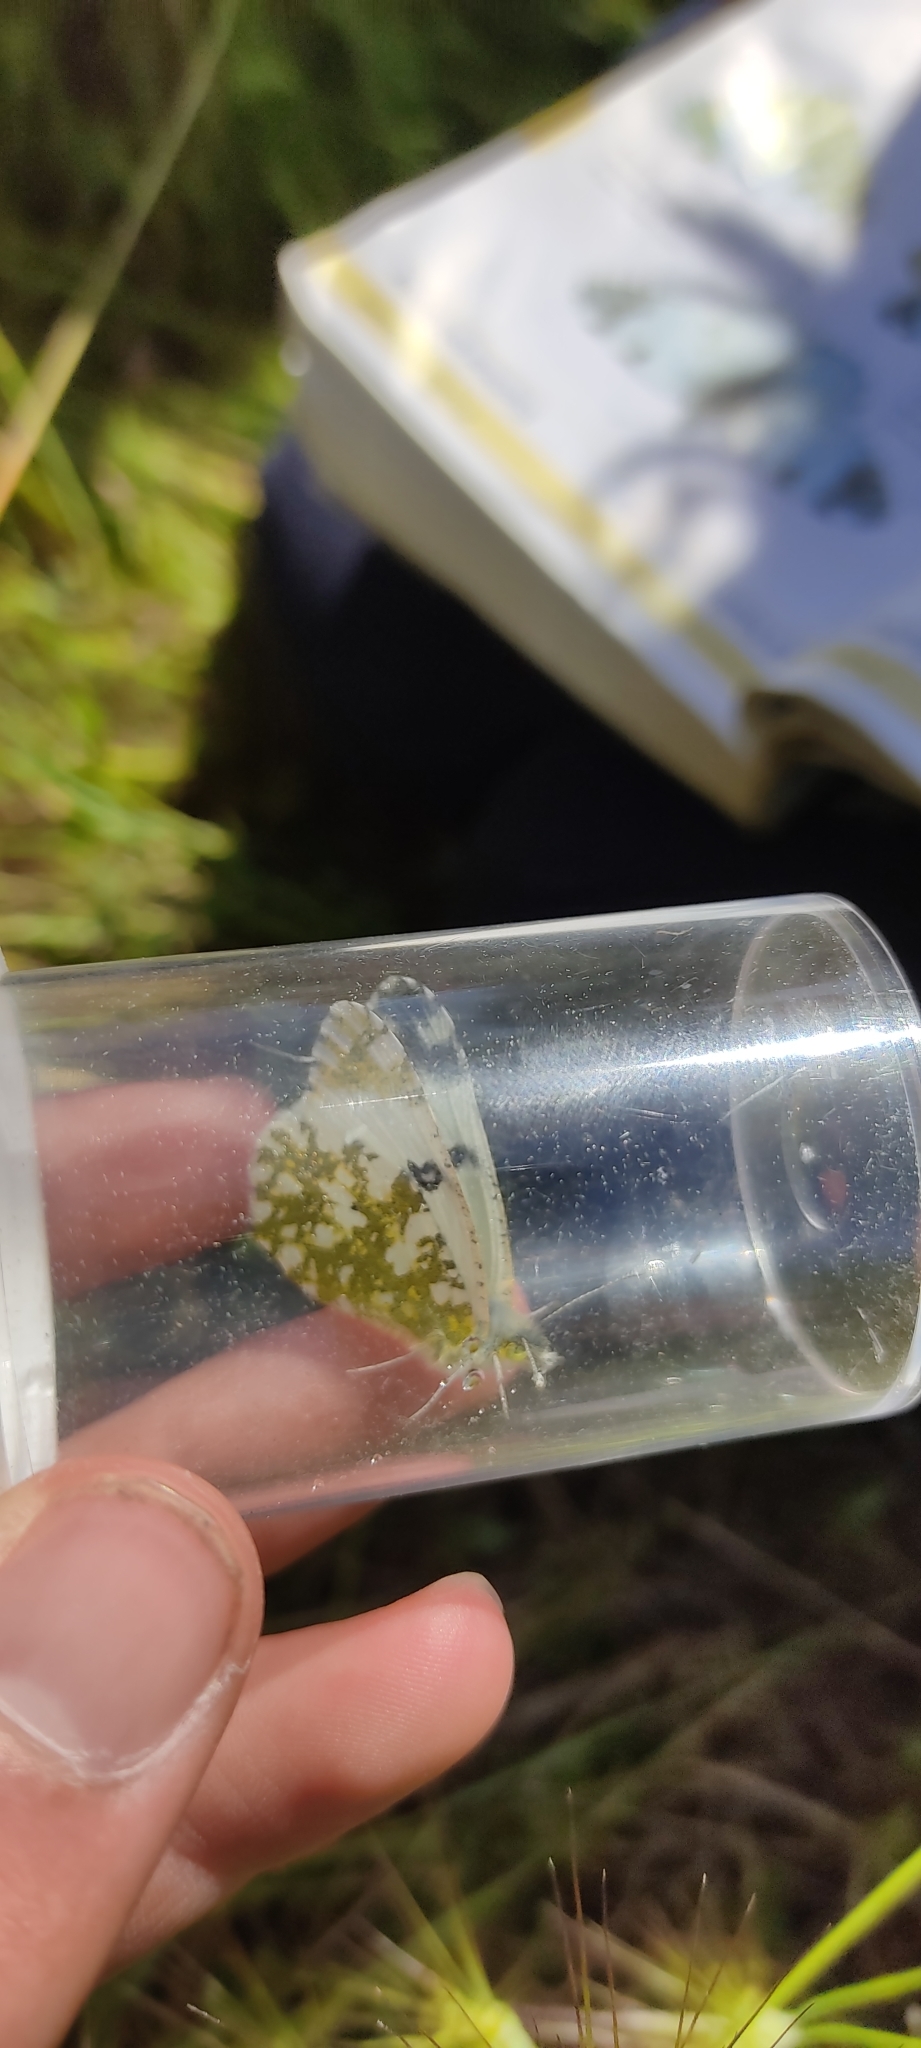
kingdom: Animalia
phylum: Arthropoda
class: Insecta
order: Lepidoptera
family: Pieridae
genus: Euchloe
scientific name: Euchloe crameri
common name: Western dappled white
